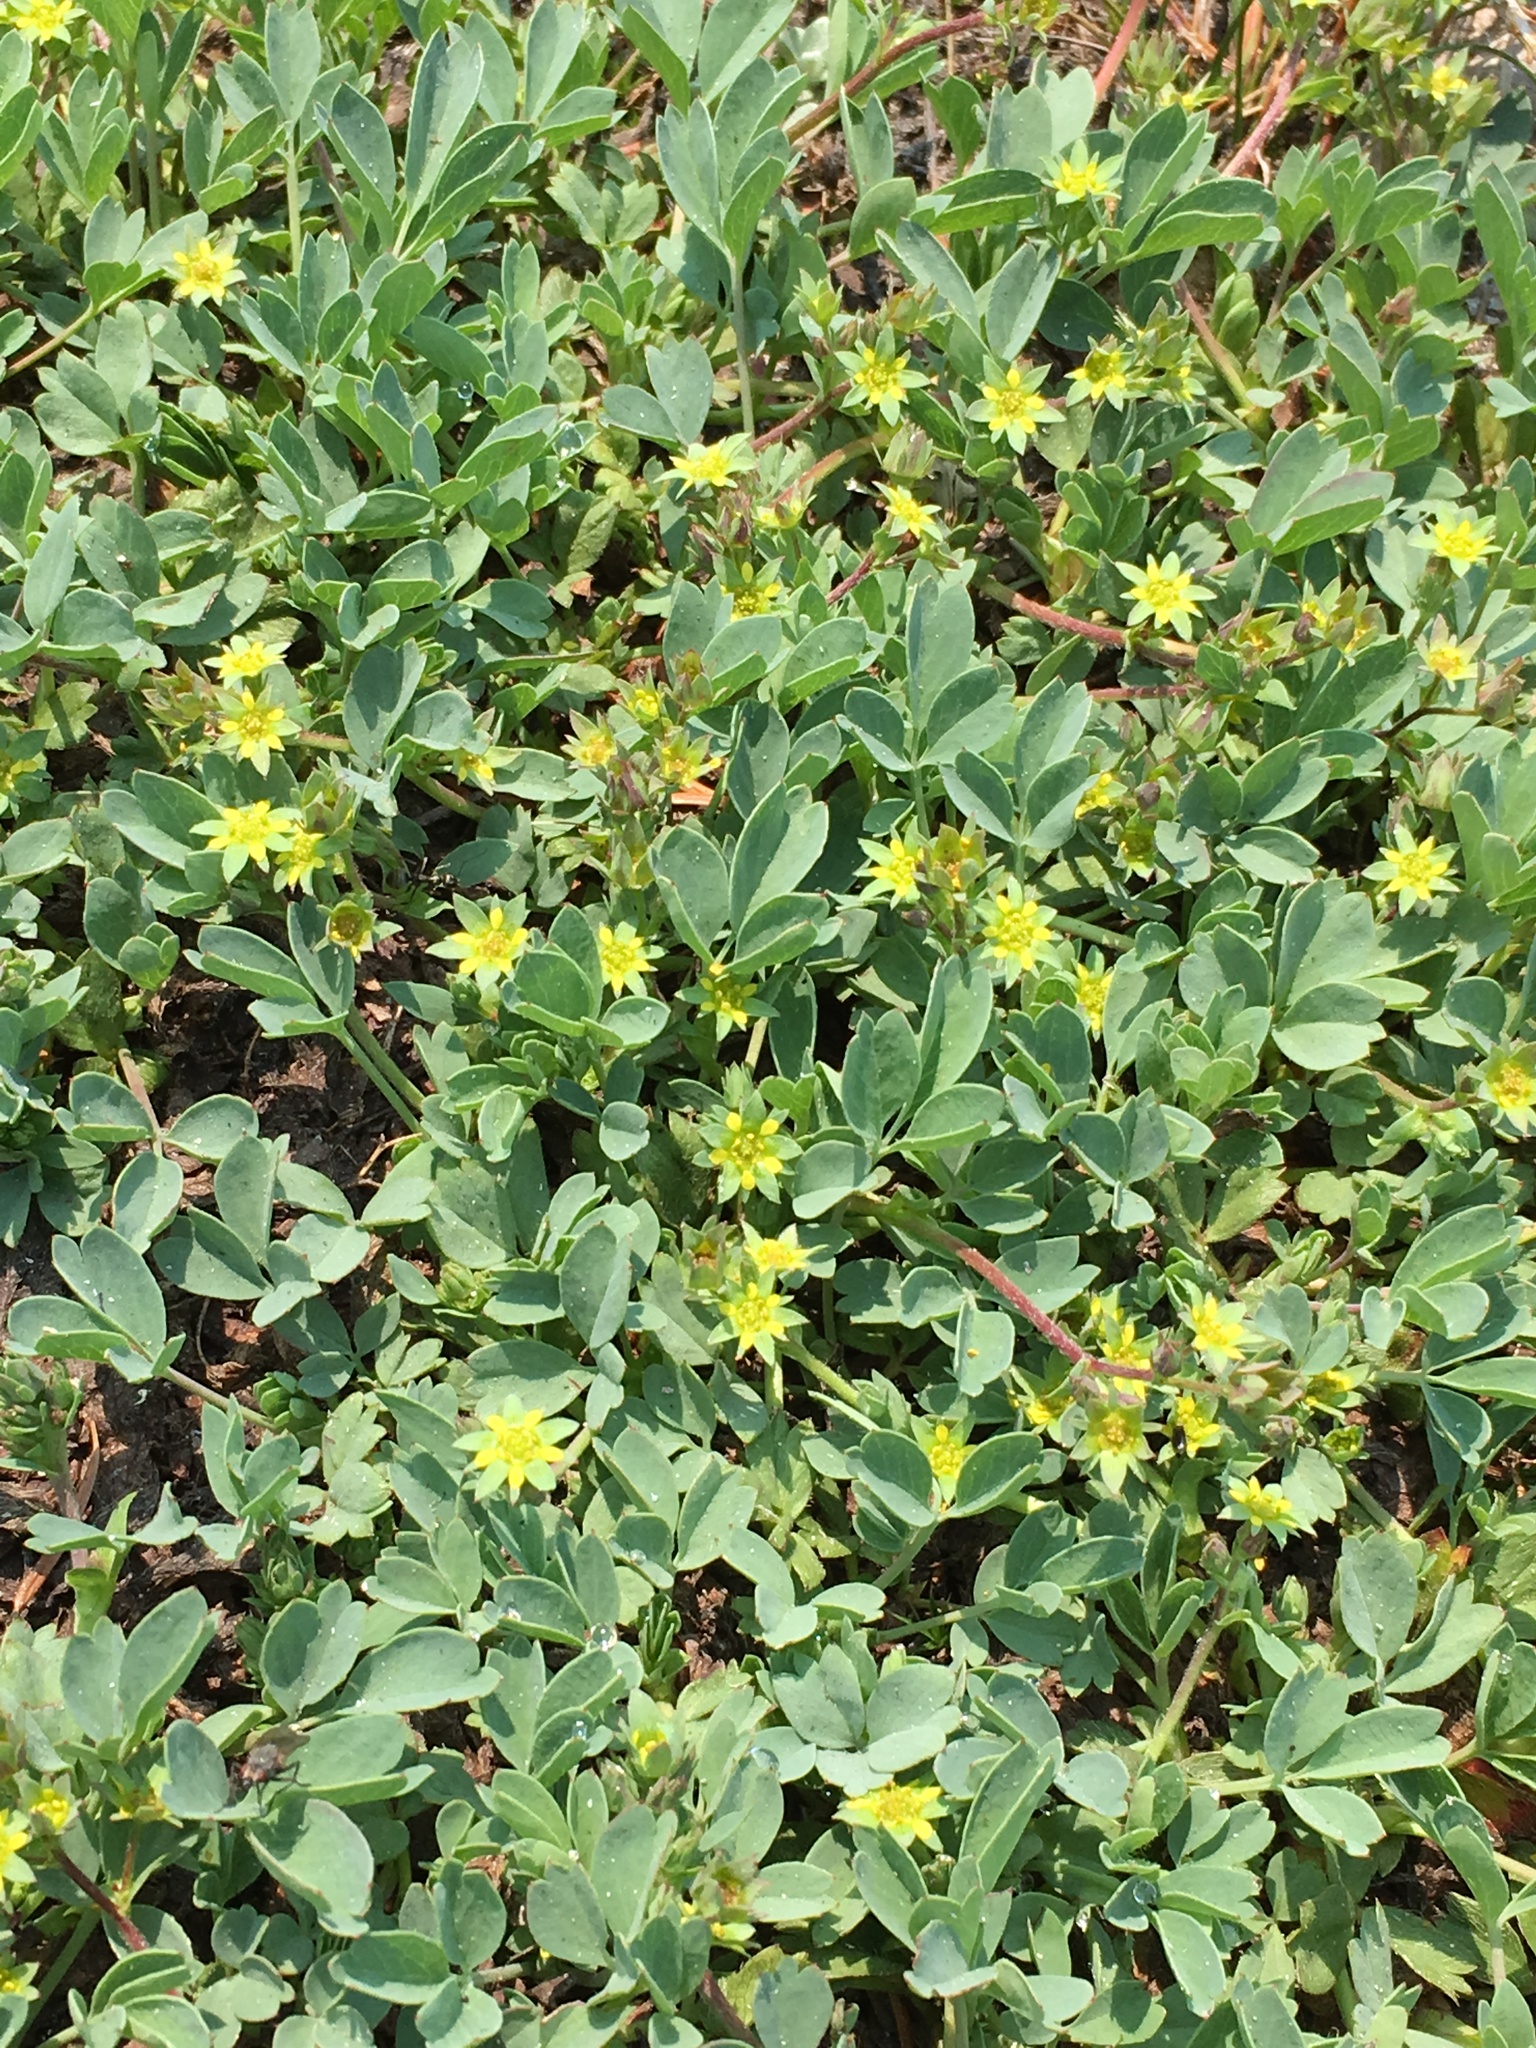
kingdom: Plantae
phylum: Tracheophyta
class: Magnoliopsida
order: Rosales
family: Rosaceae
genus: Sibbaldia
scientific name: Sibbaldia procumbens
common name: Creeping sibbaldia
